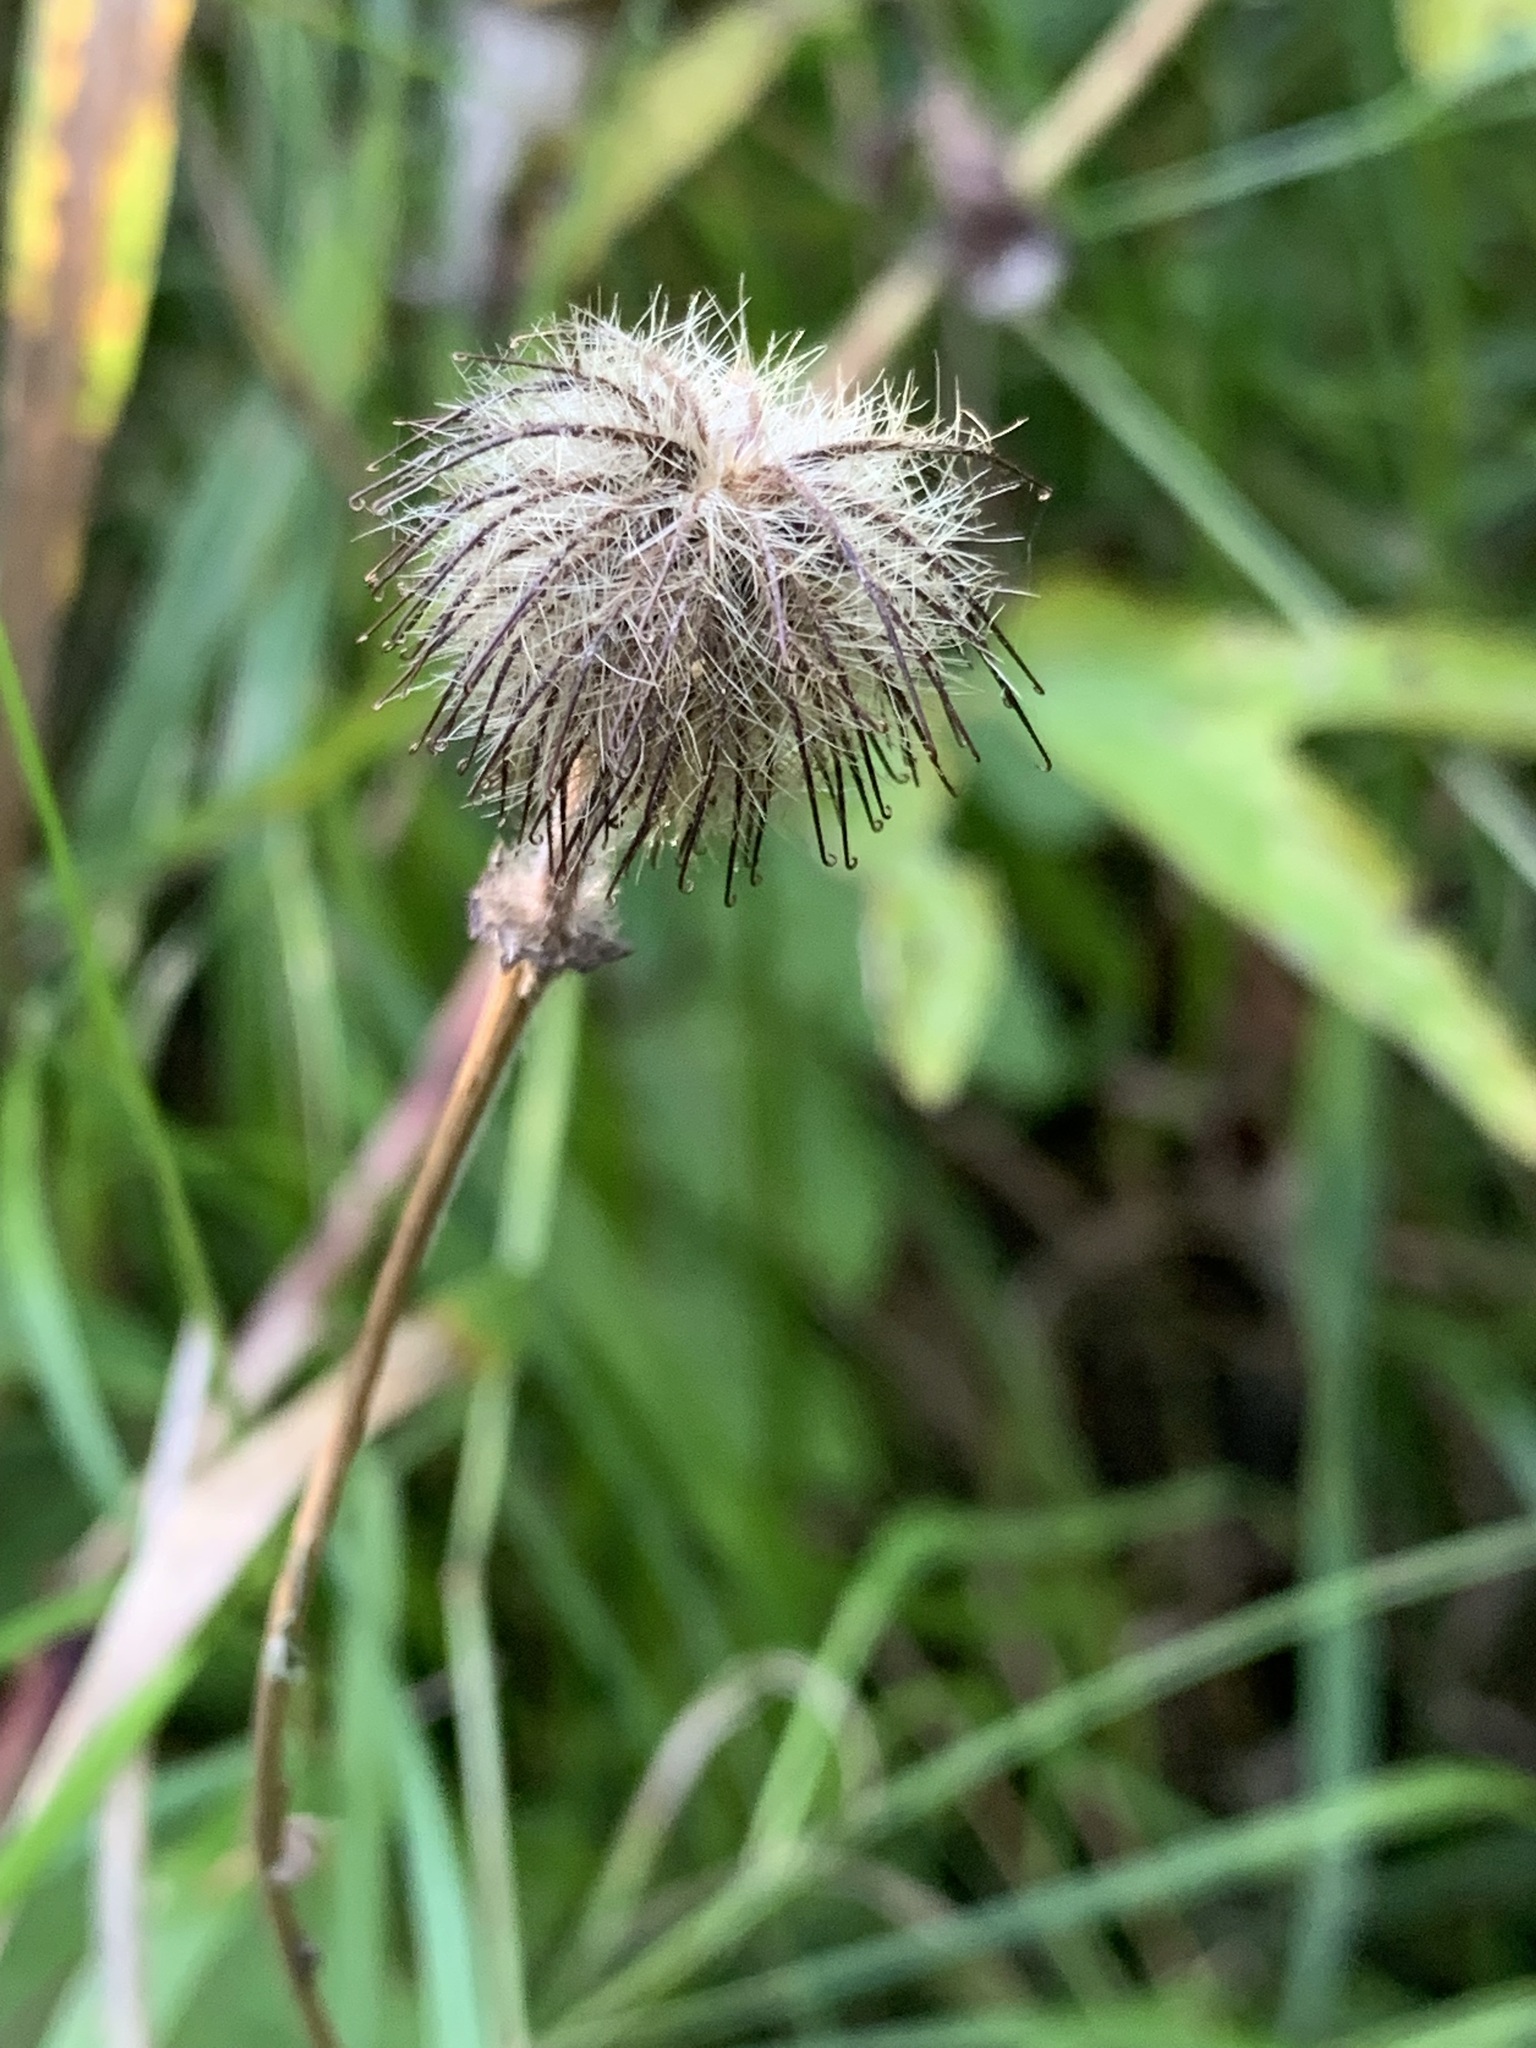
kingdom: Plantae
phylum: Tracheophyta
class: Magnoliopsida
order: Rosales
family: Rosaceae
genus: Geum
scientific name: Geum rivale
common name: Water avens
